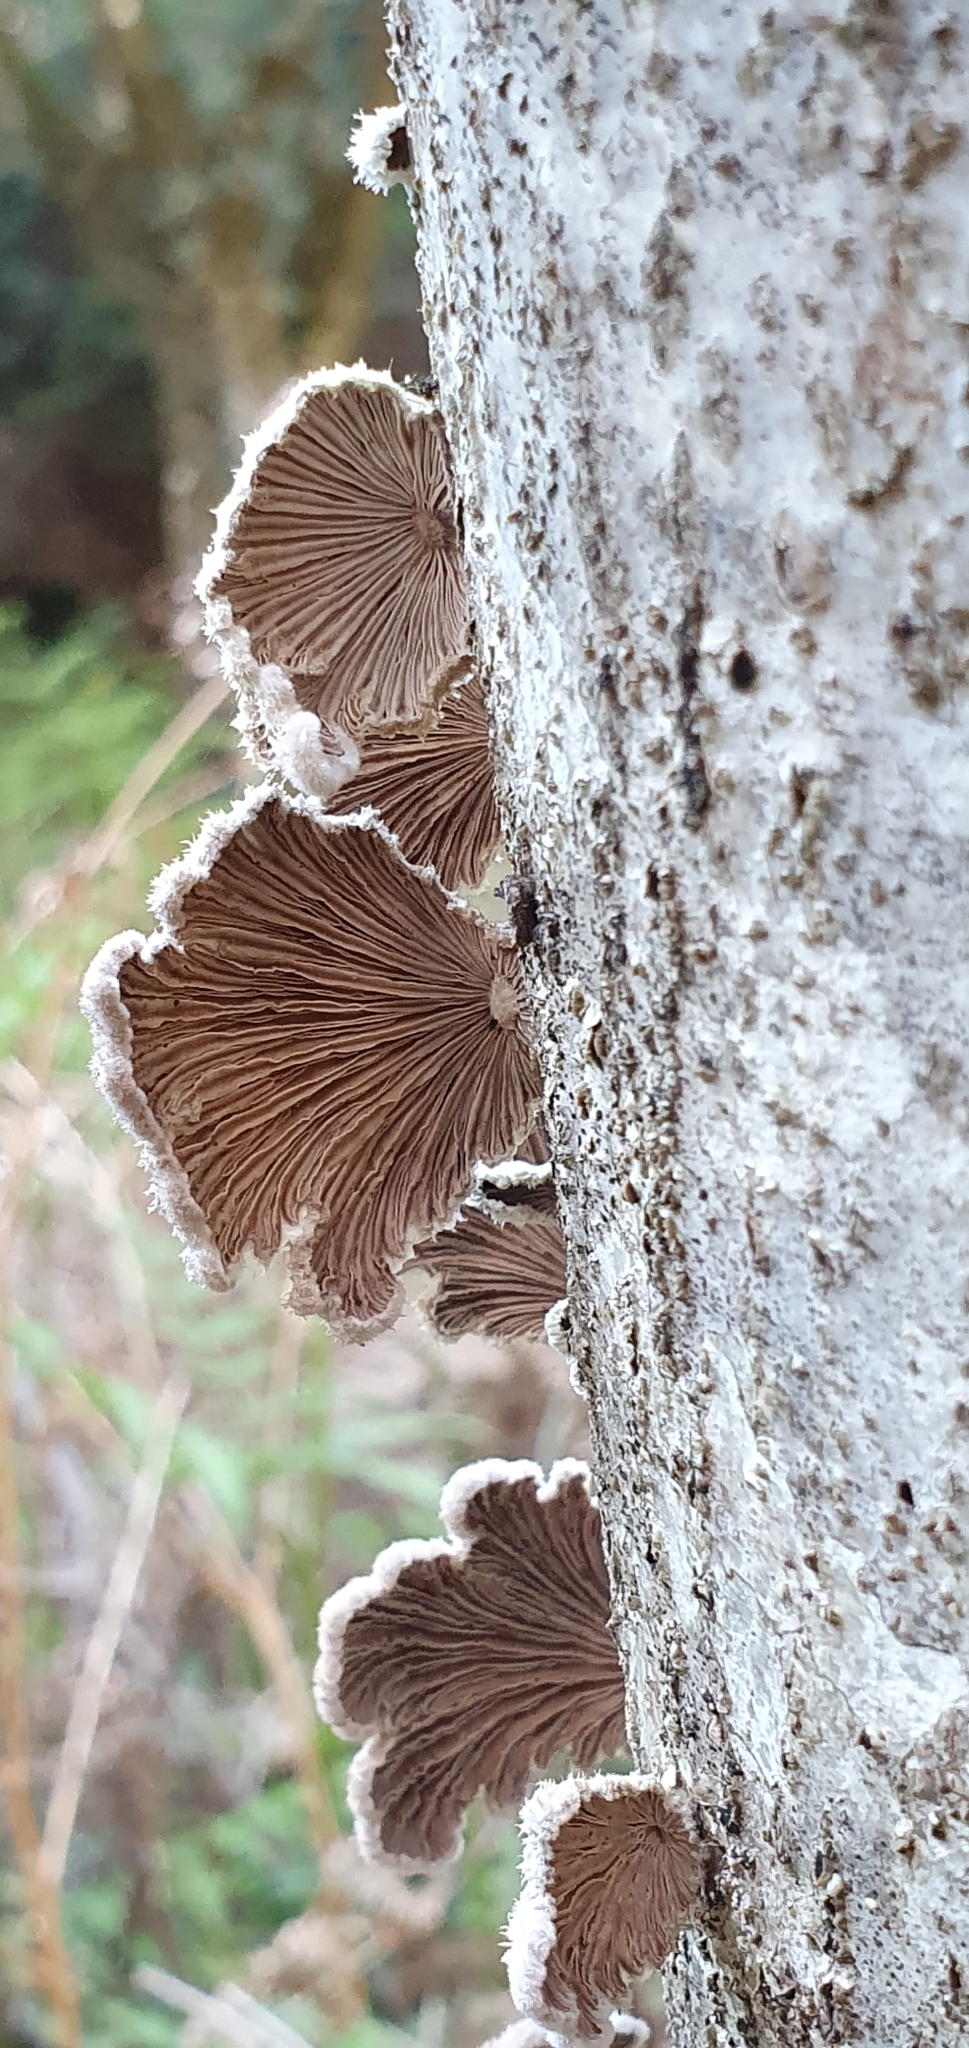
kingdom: Fungi
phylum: Basidiomycota
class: Agaricomycetes
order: Agaricales
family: Schizophyllaceae
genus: Schizophyllum
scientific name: Schizophyllum commune
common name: Common porecrust
